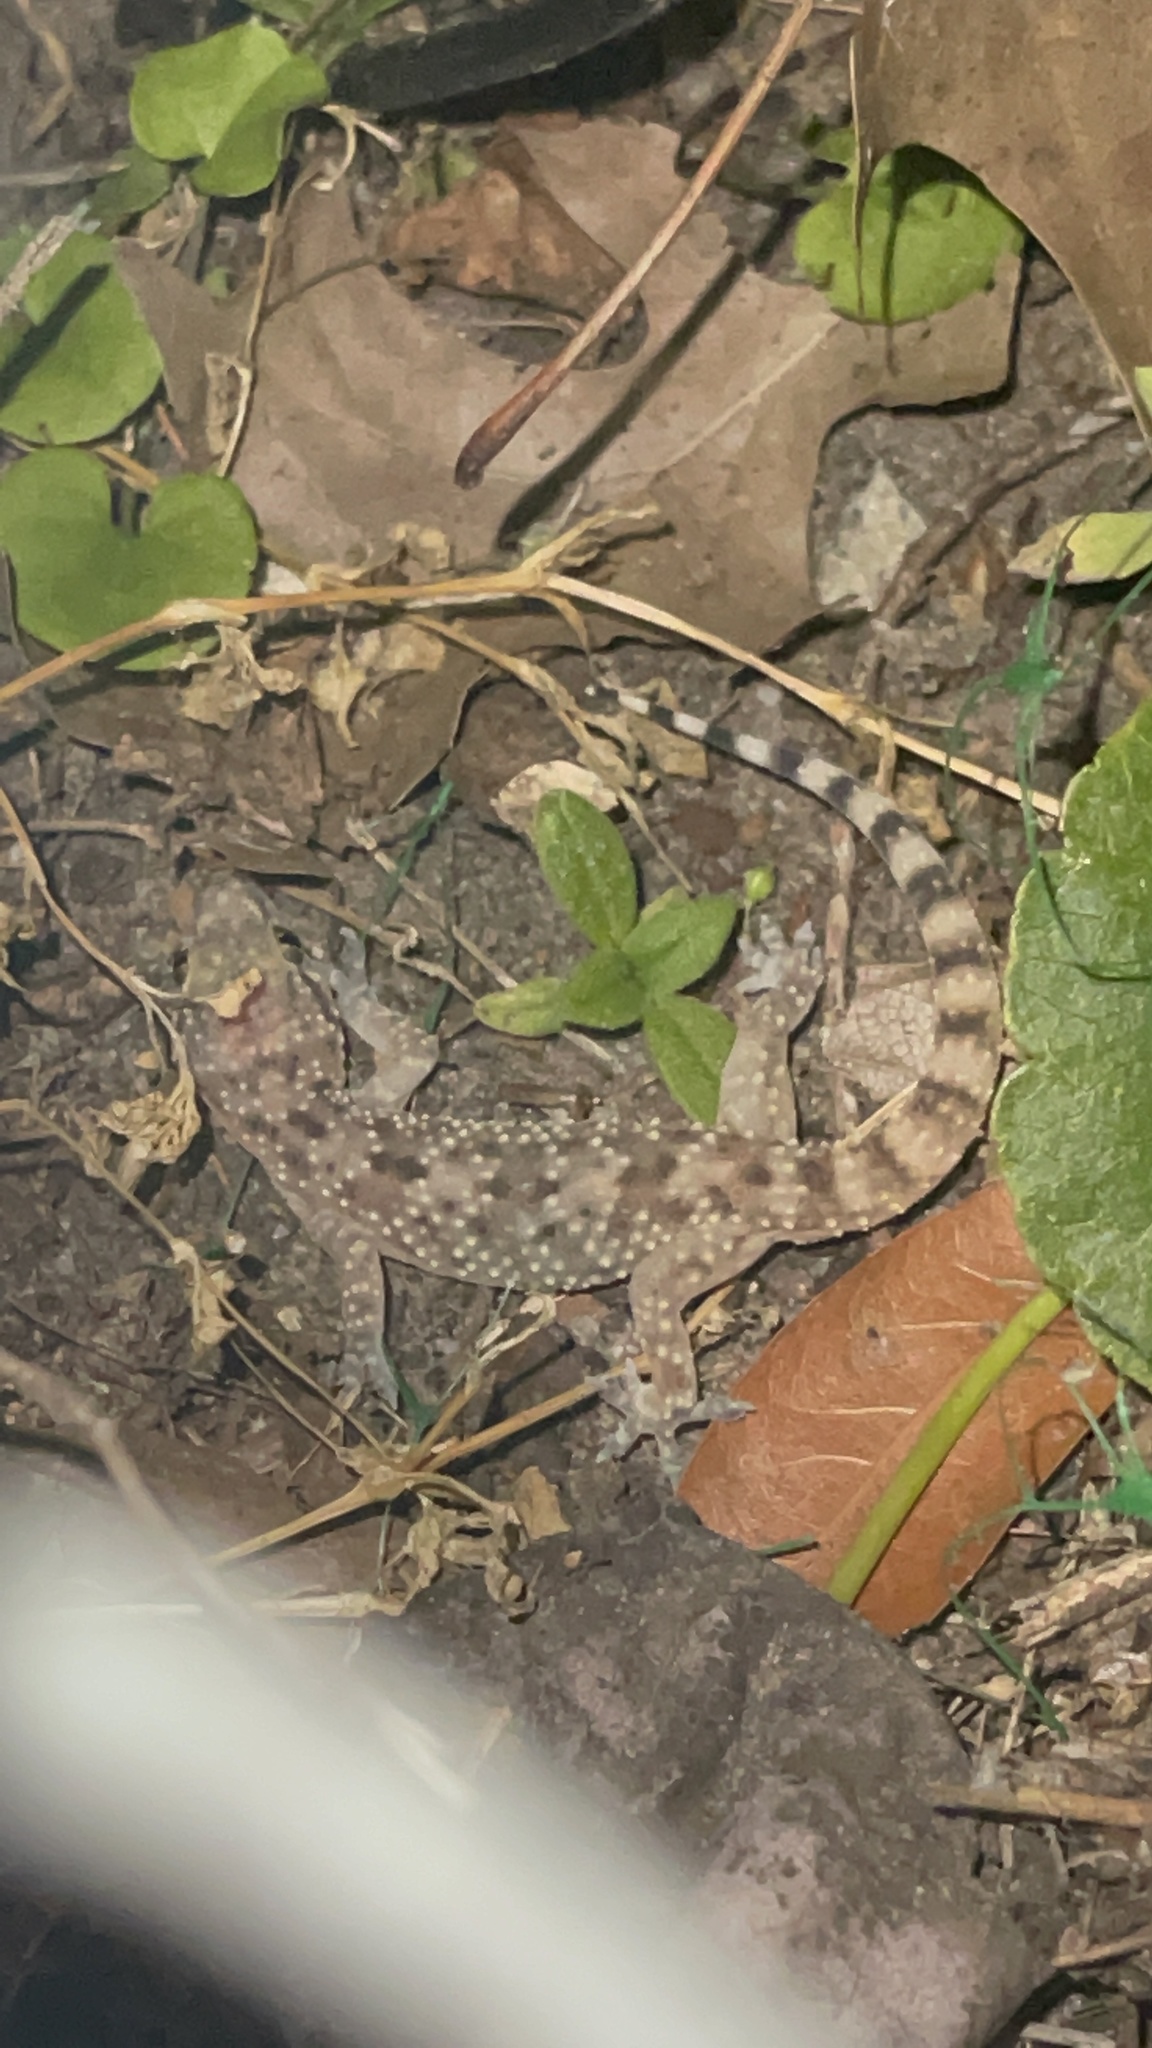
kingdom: Animalia
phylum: Chordata
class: Squamata
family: Gekkonidae
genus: Hemidactylus
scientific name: Hemidactylus turcicus
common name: Turkish gecko
